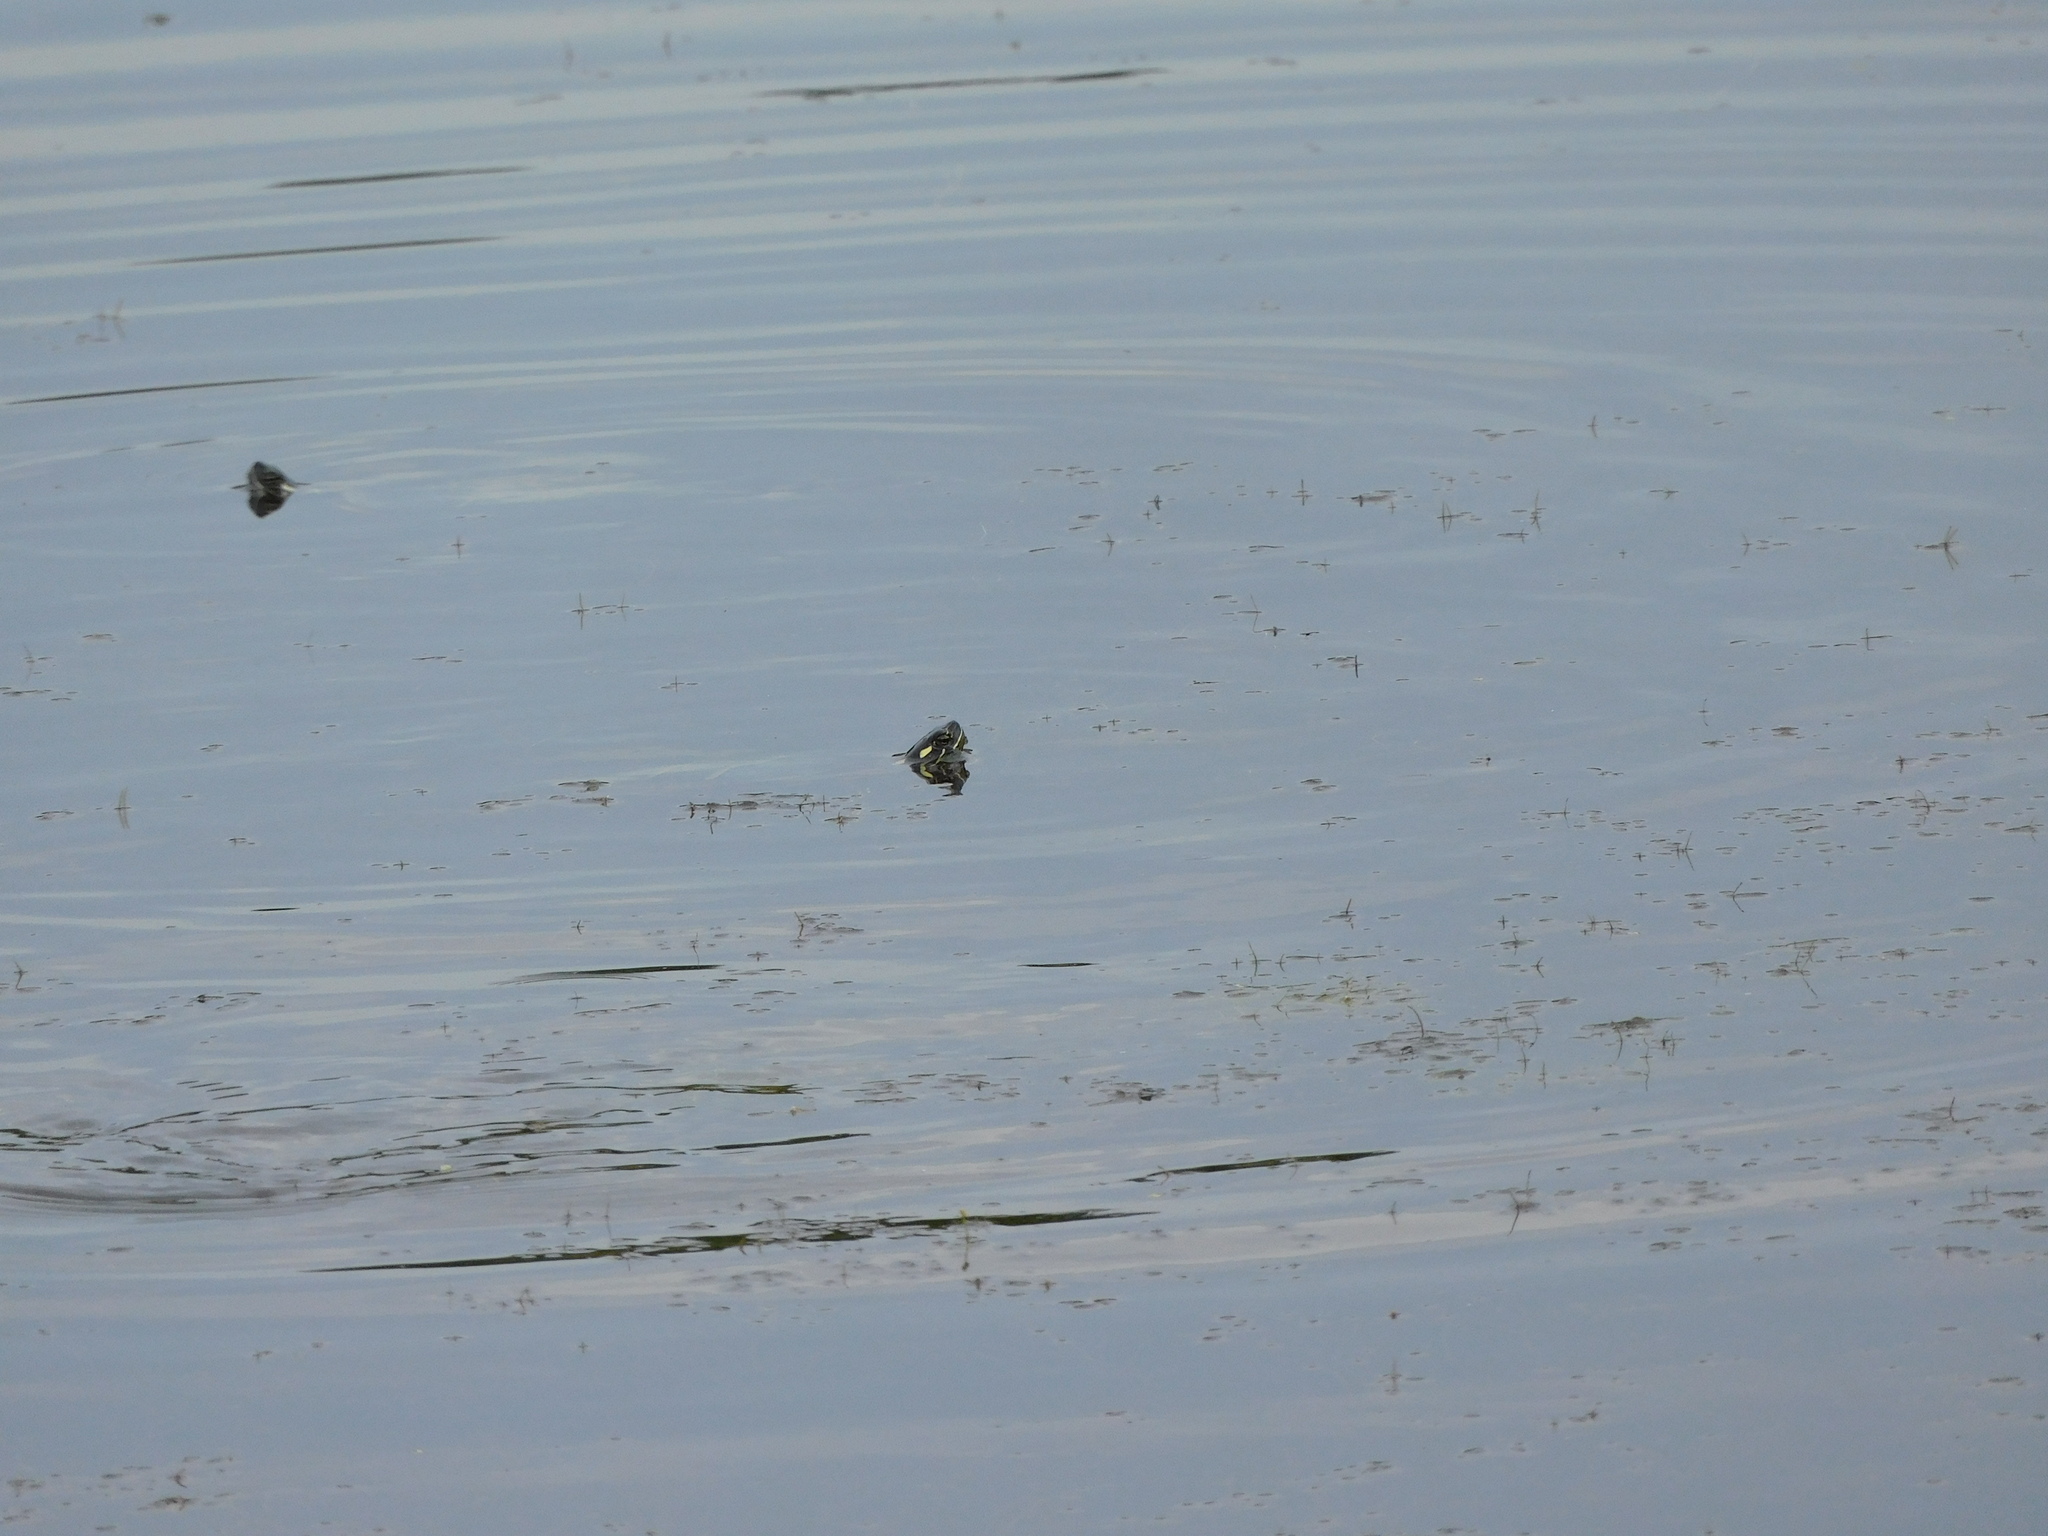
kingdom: Animalia
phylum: Chordata
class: Testudines
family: Emydidae
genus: Chrysemys
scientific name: Chrysemys picta
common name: Painted turtle
